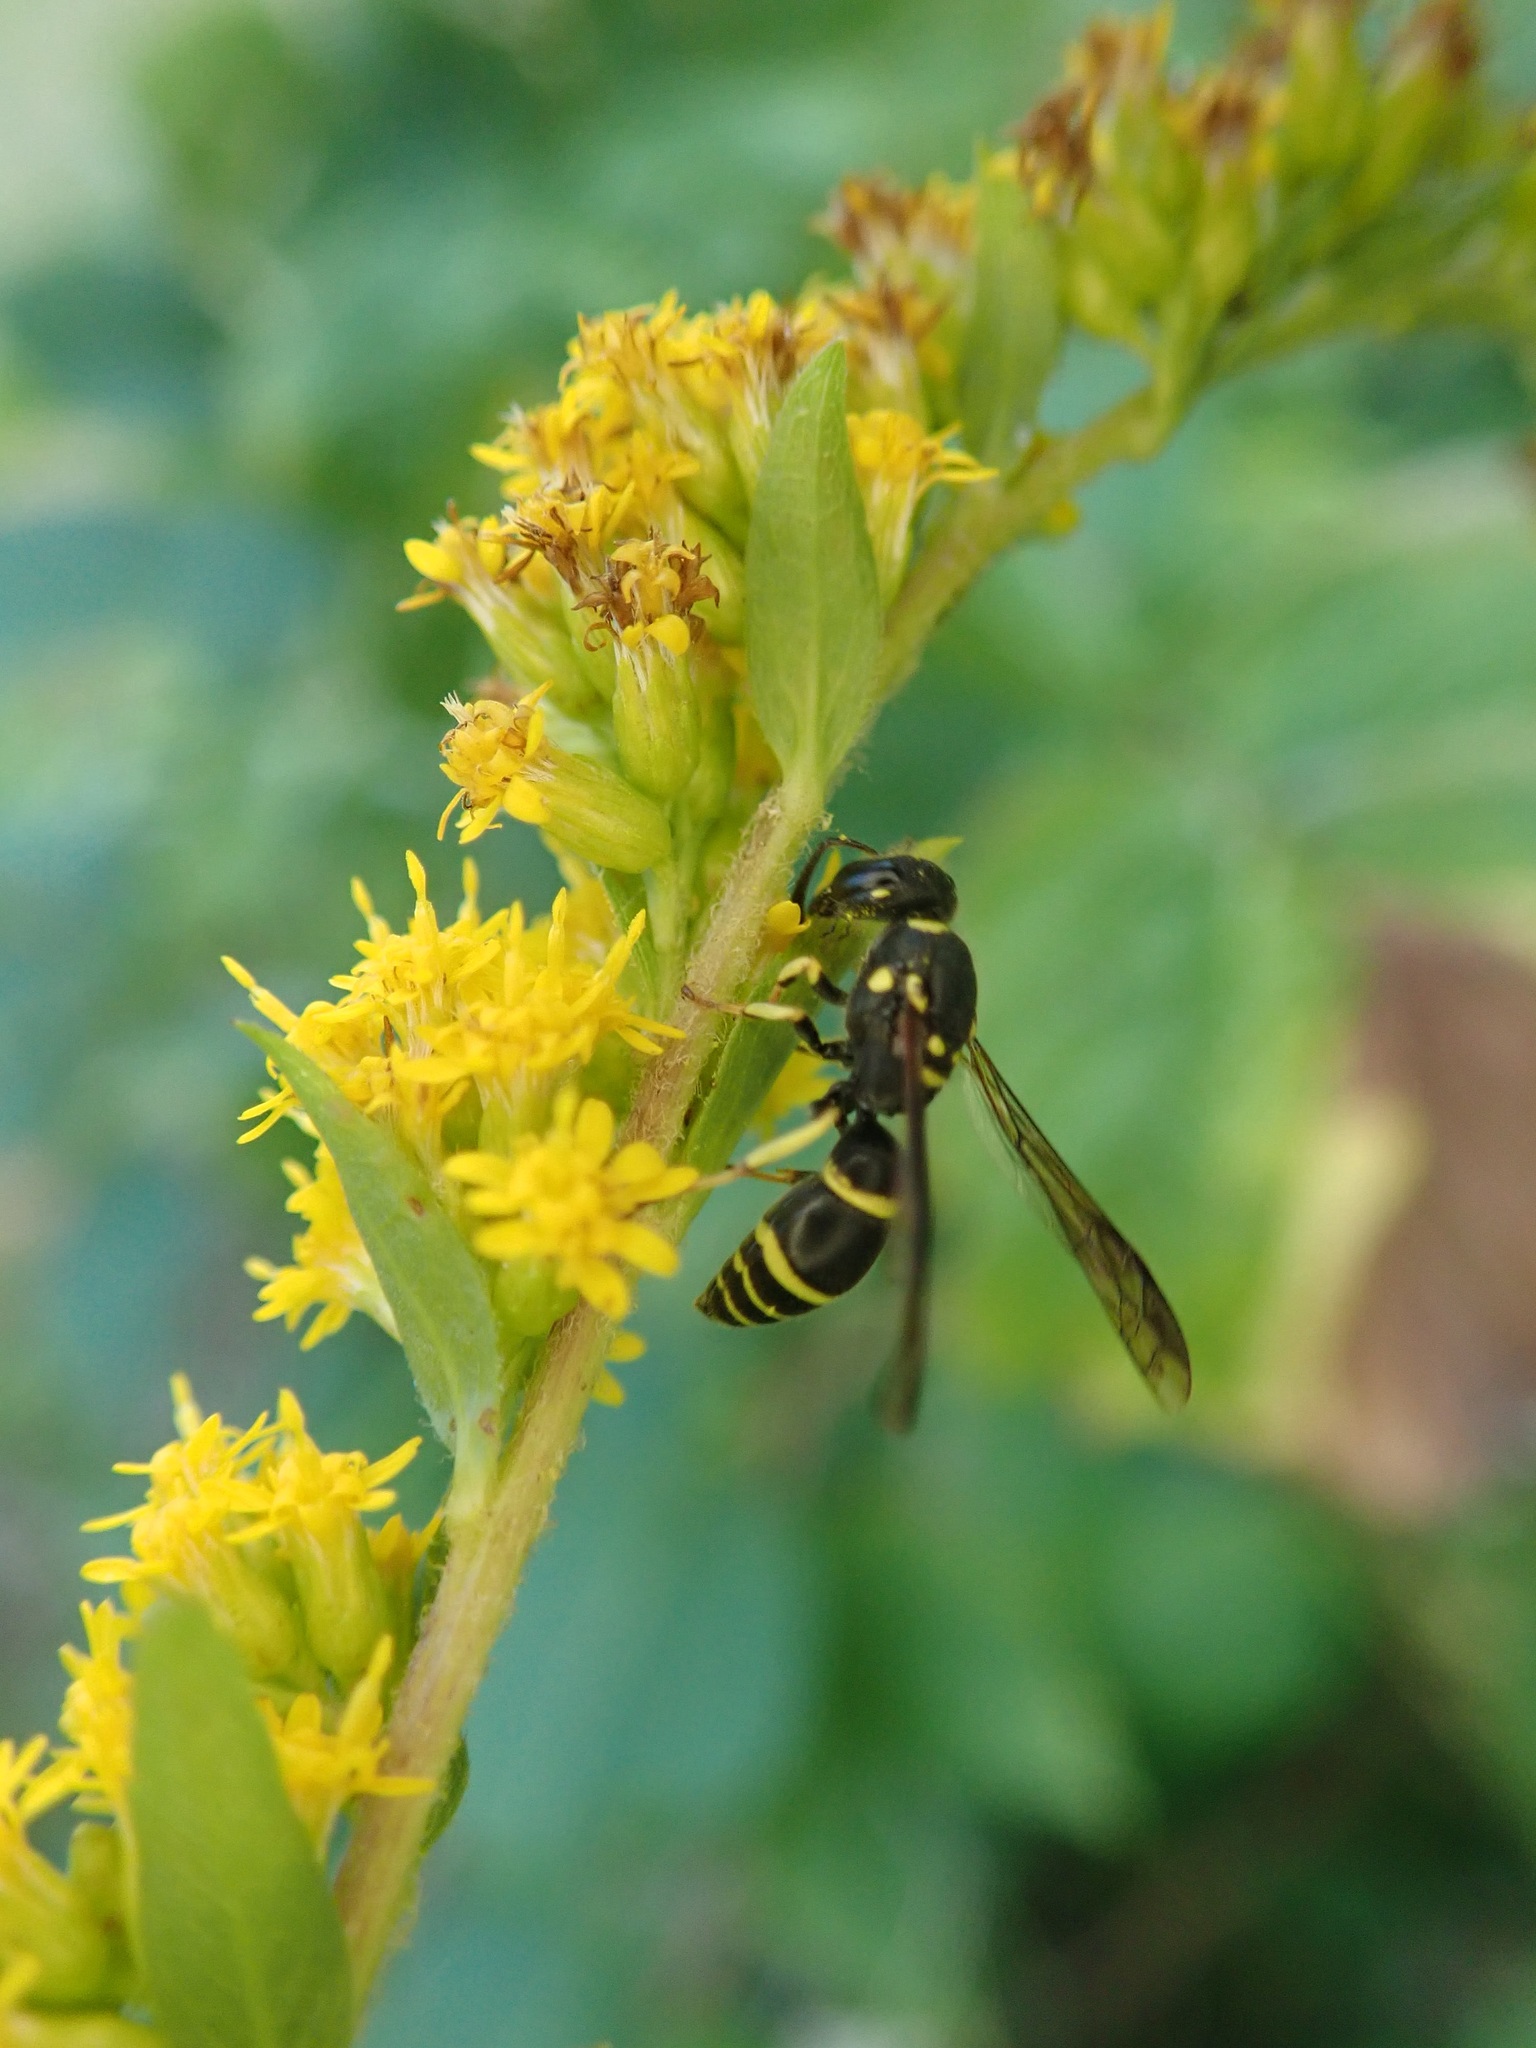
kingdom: Animalia
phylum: Arthropoda
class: Insecta
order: Hymenoptera
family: Vespidae
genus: Ancistrocerus
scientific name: Ancistrocerus adiabatus
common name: Bramble mason wasp
